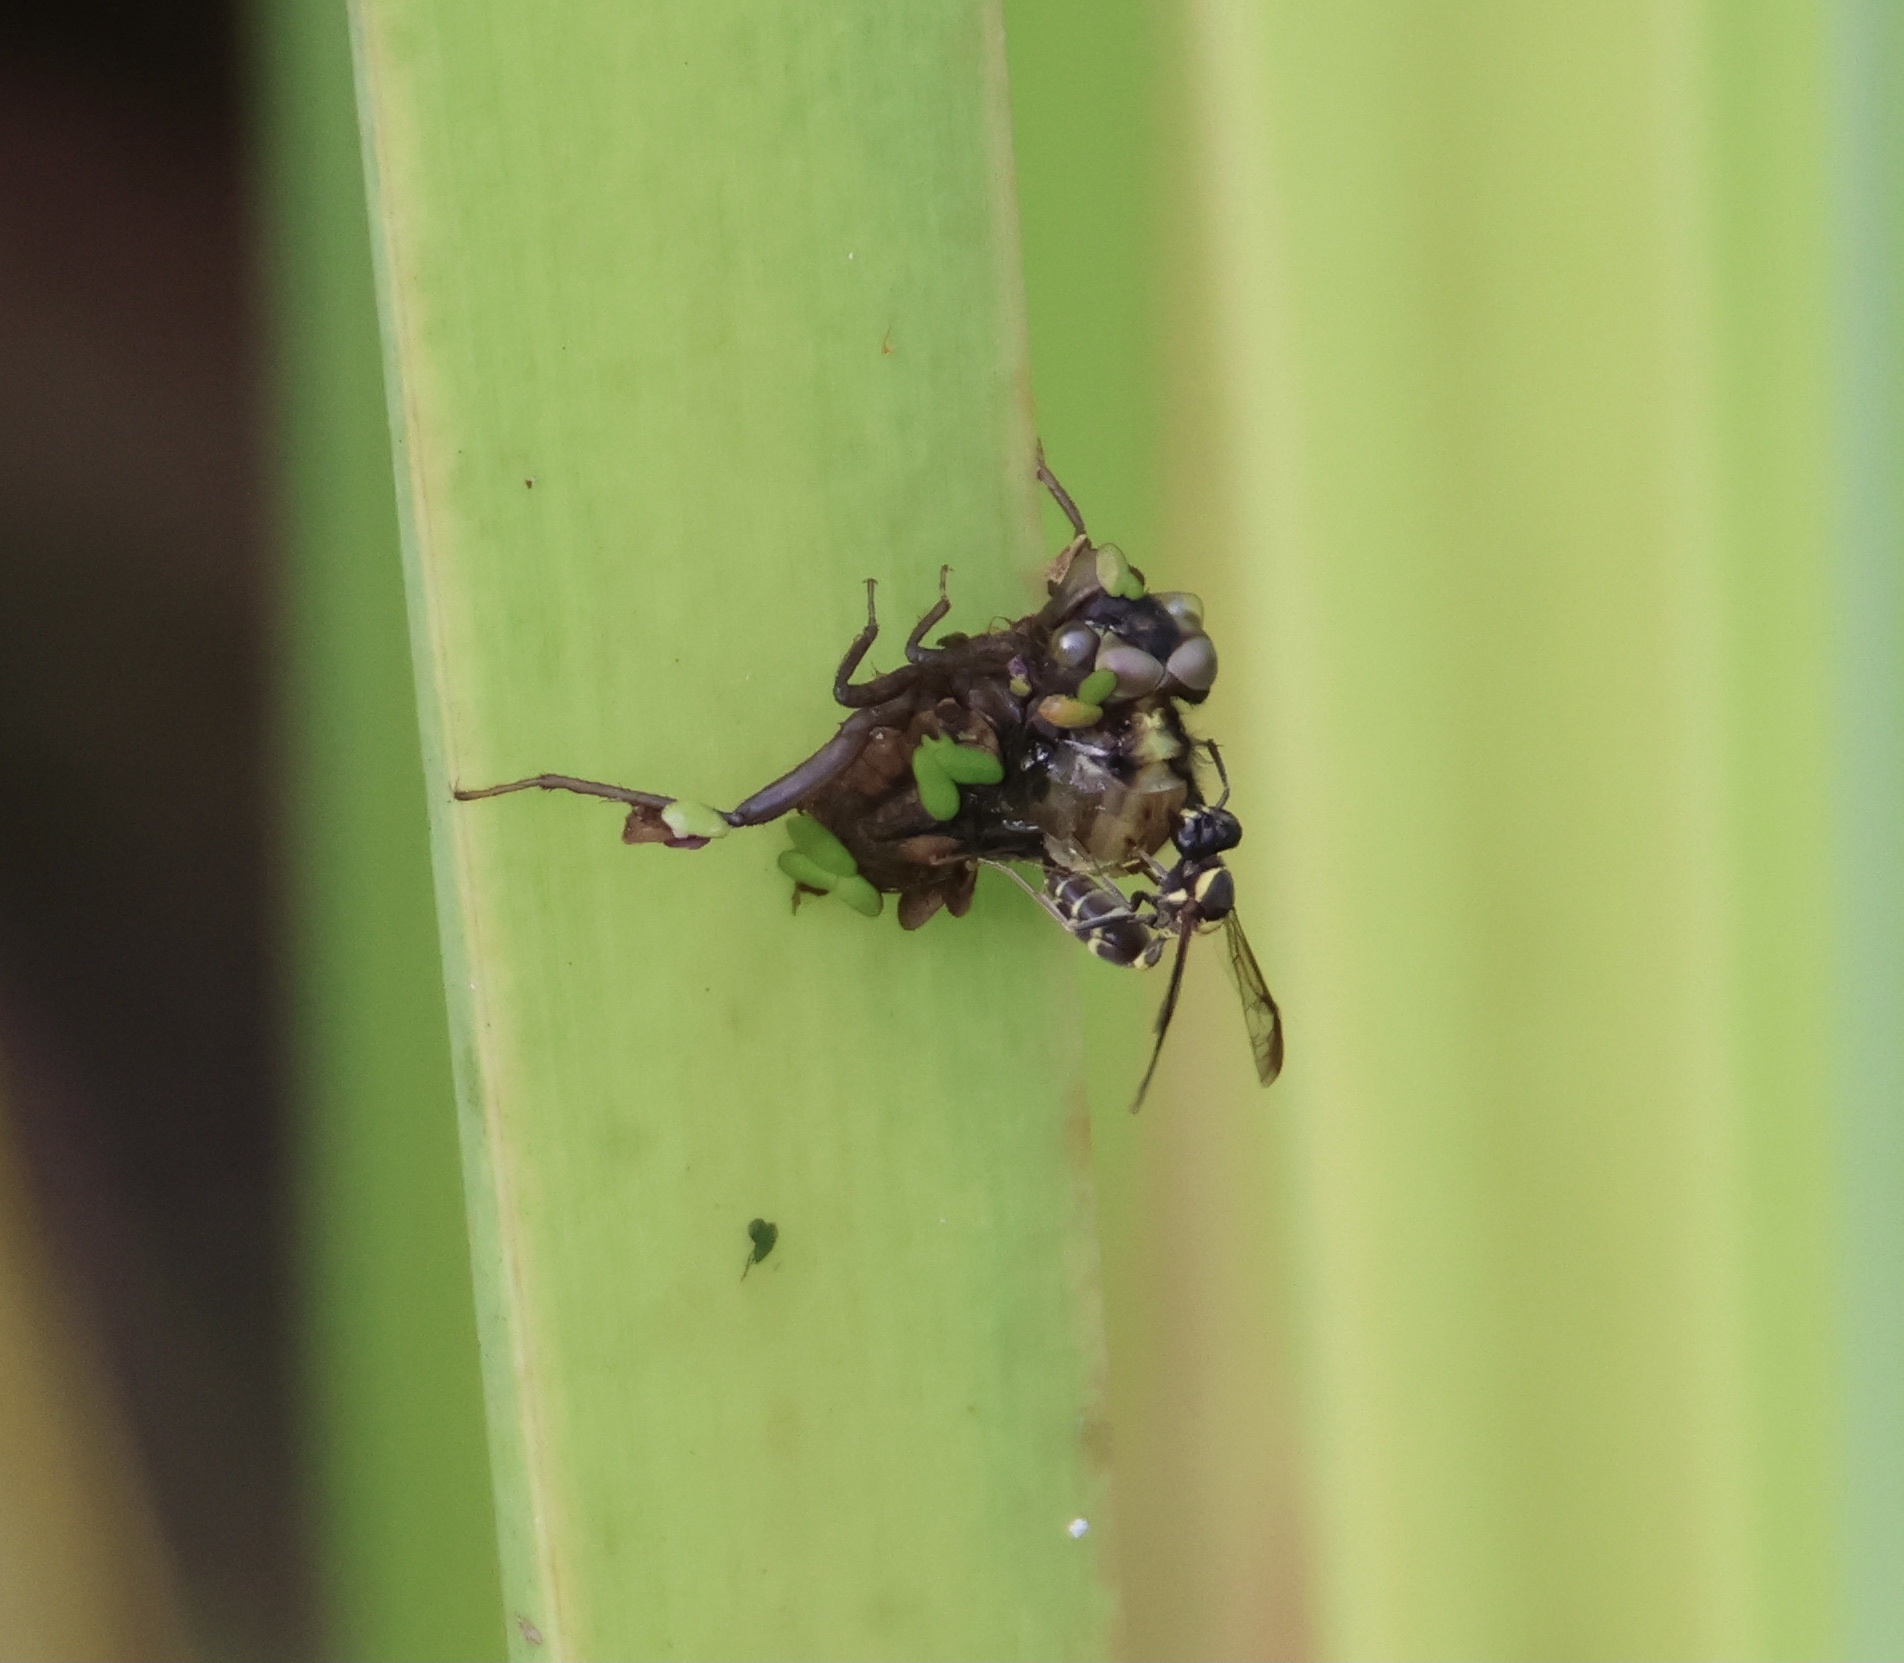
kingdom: Animalia
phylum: Arthropoda
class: Insecta
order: Hymenoptera
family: Eumenidae
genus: Polybia
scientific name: Polybia occidentalis
